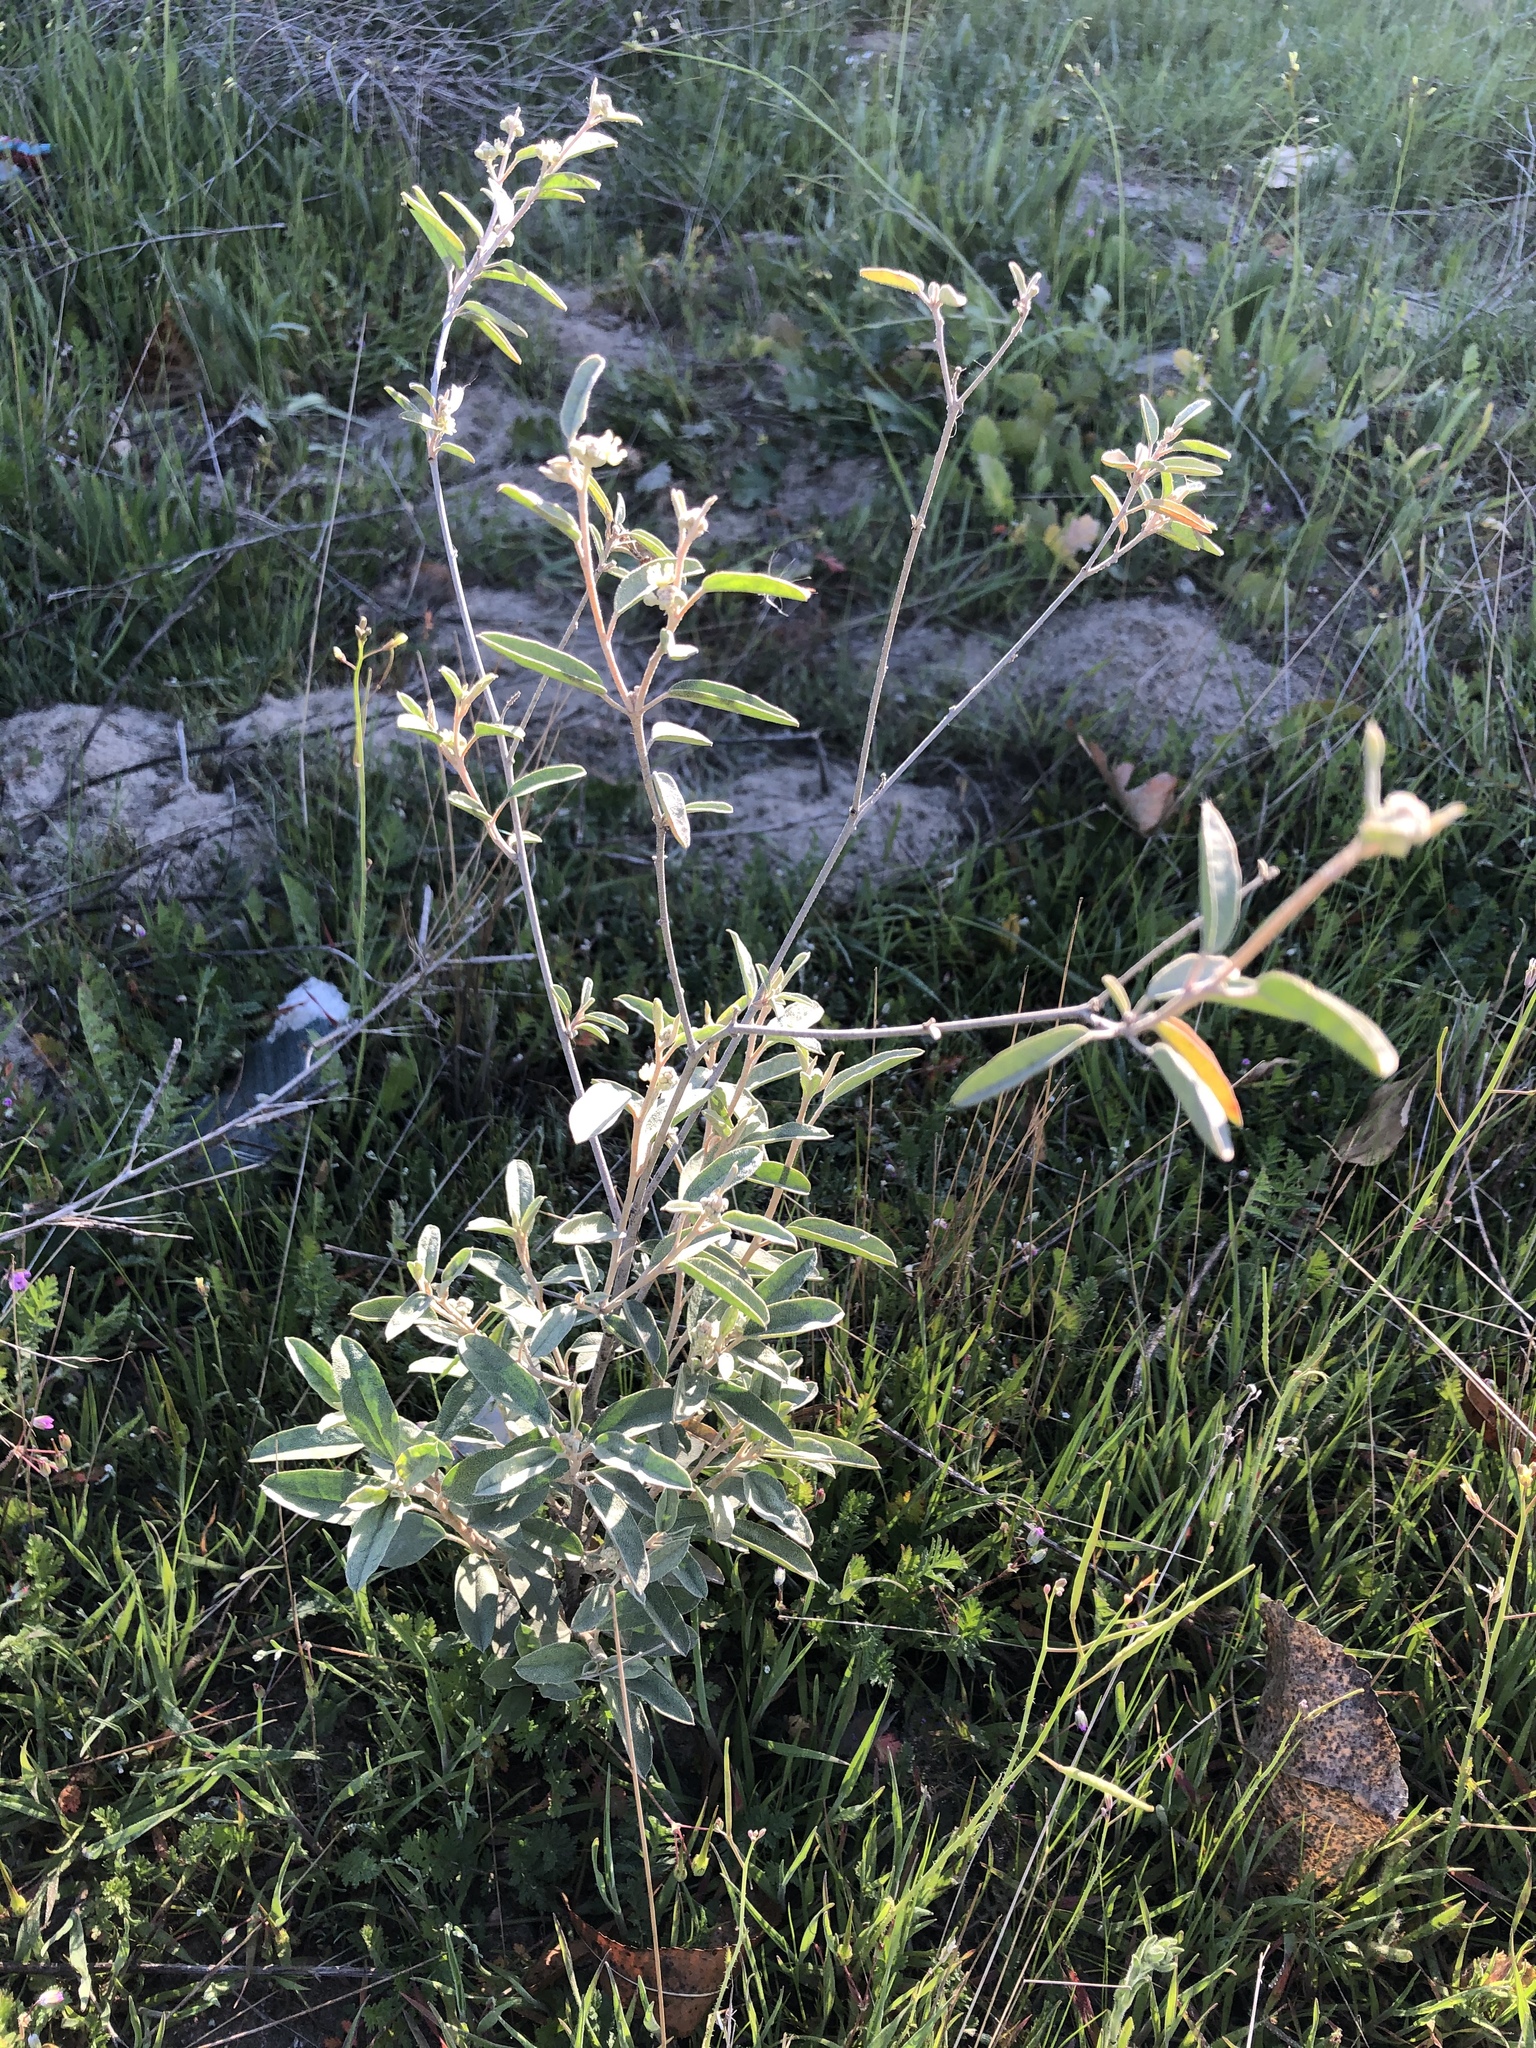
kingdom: Plantae
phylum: Tracheophyta
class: Magnoliopsida
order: Malpighiales
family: Euphorbiaceae
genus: Croton
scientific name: Croton californicus
